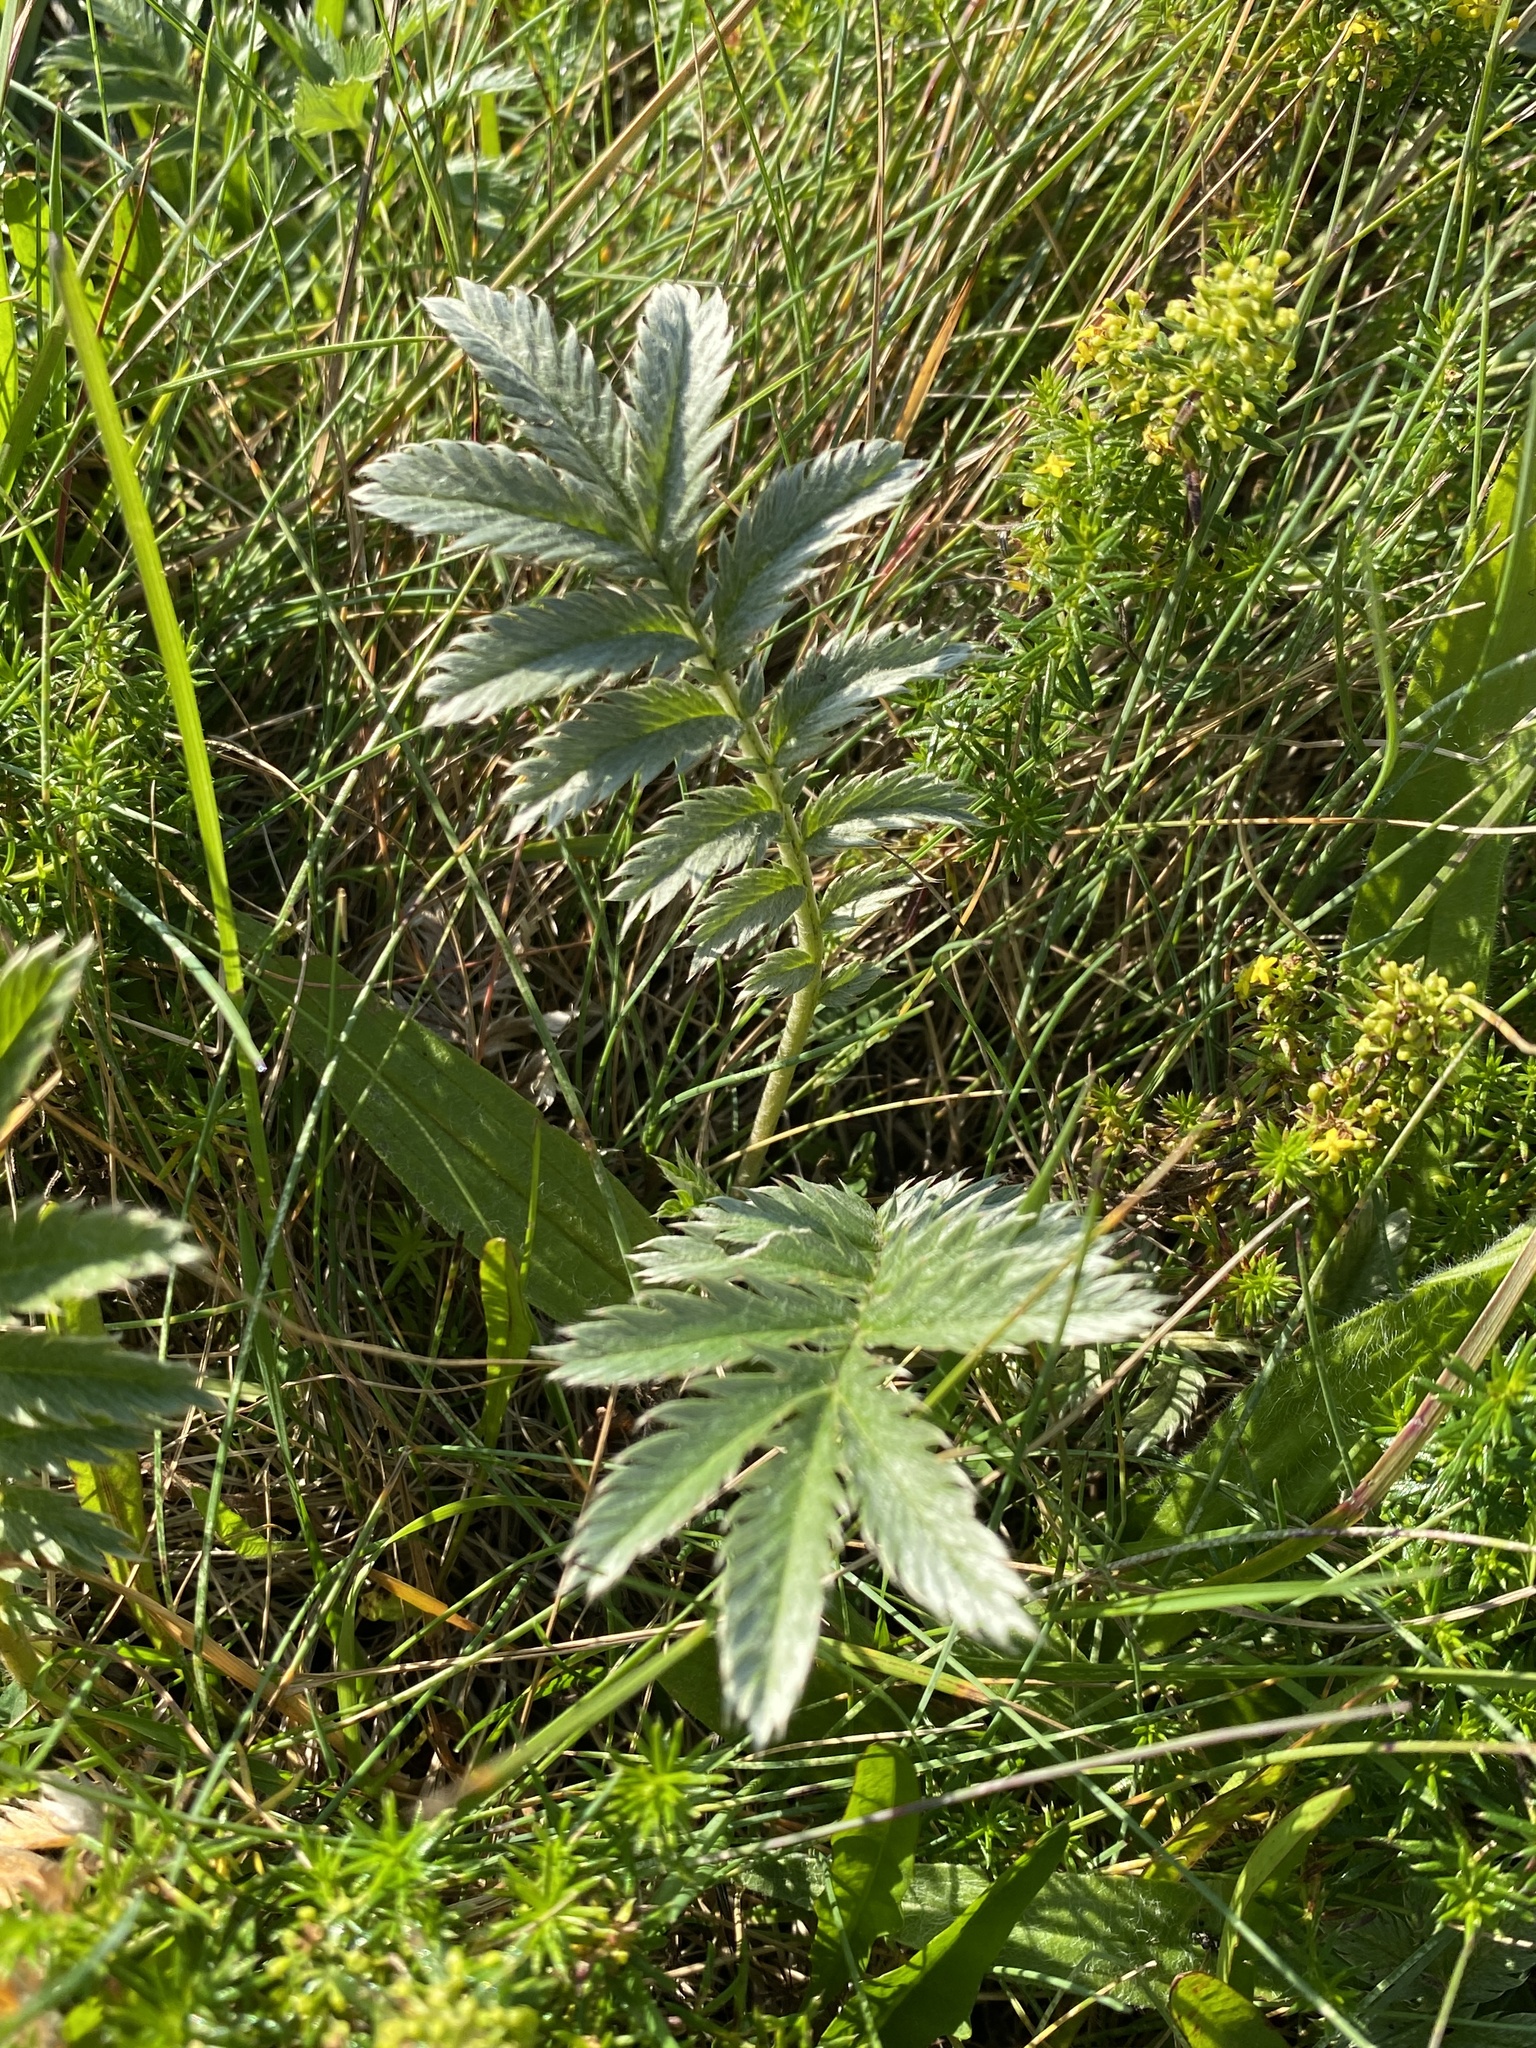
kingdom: Plantae
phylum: Tracheophyta
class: Magnoliopsida
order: Rosales
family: Rosaceae
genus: Argentina
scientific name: Argentina anserina
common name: Common silverweed
